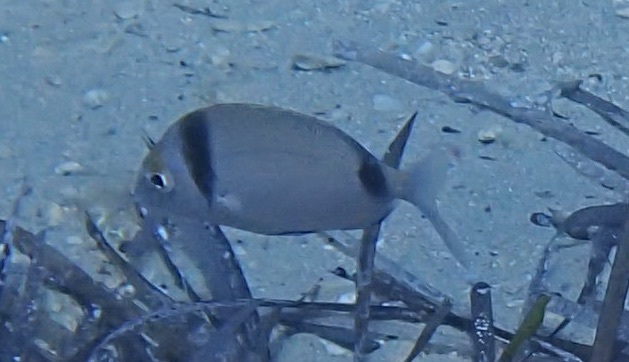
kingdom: Animalia
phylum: Chordata
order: Perciformes
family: Sparidae
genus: Diplodus
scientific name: Diplodus vulgaris
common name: Common two-banded seabream
